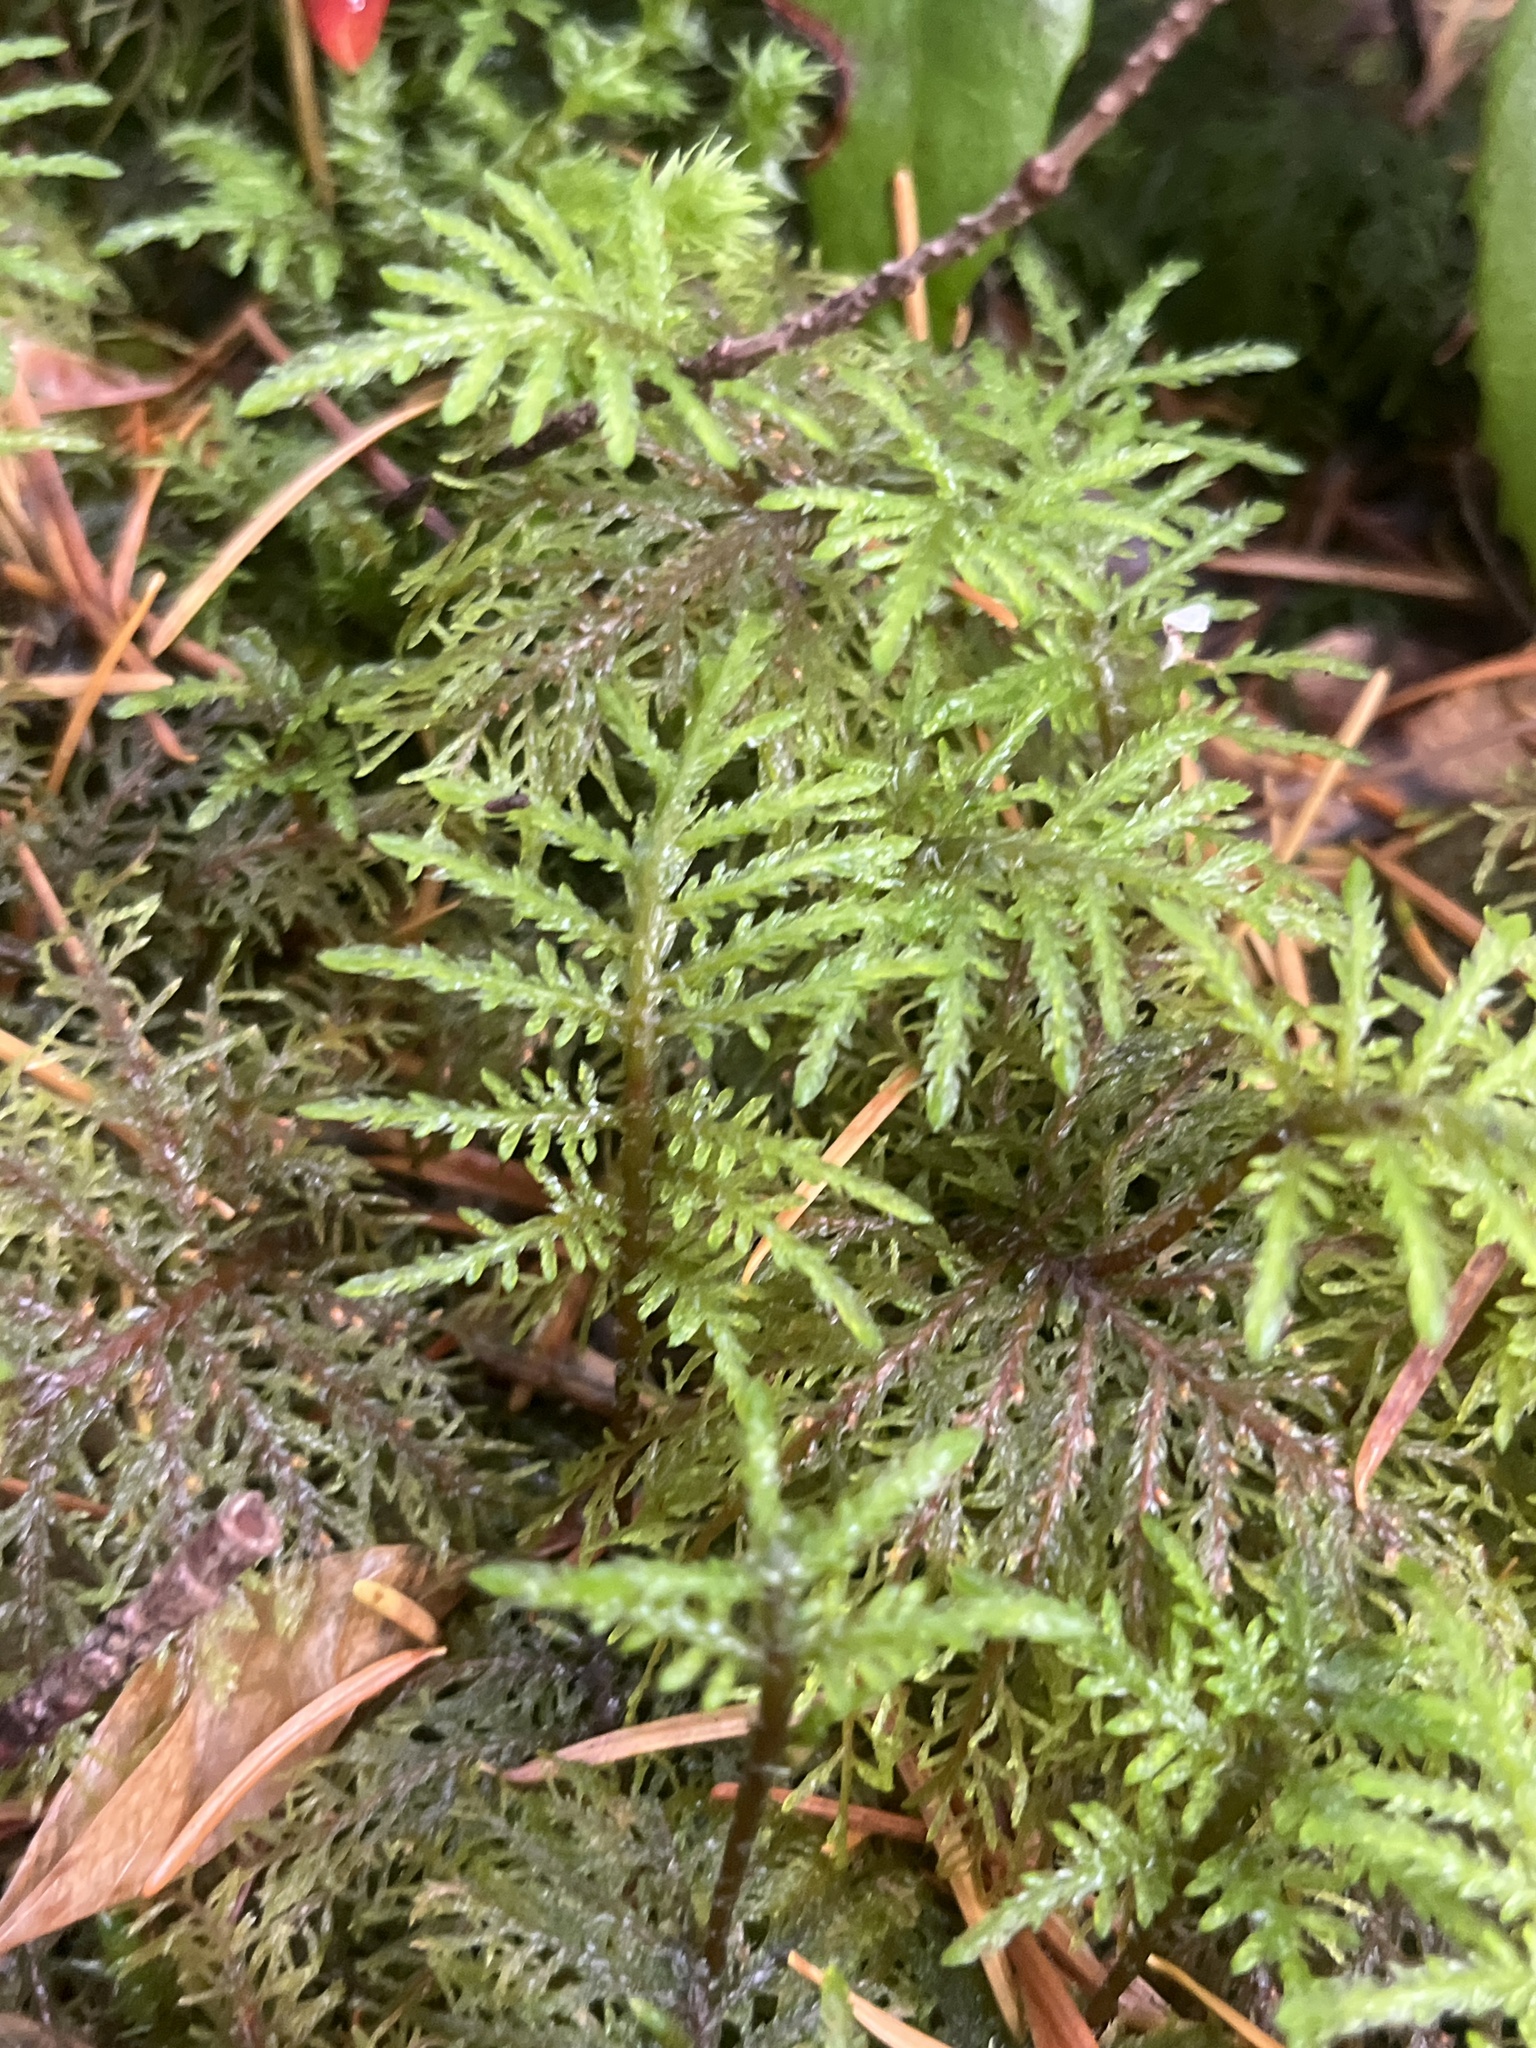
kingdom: Plantae
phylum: Bryophyta
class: Bryopsida
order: Hypnales
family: Hylocomiaceae
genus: Hylocomium
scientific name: Hylocomium splendens
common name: Stairstep moss
